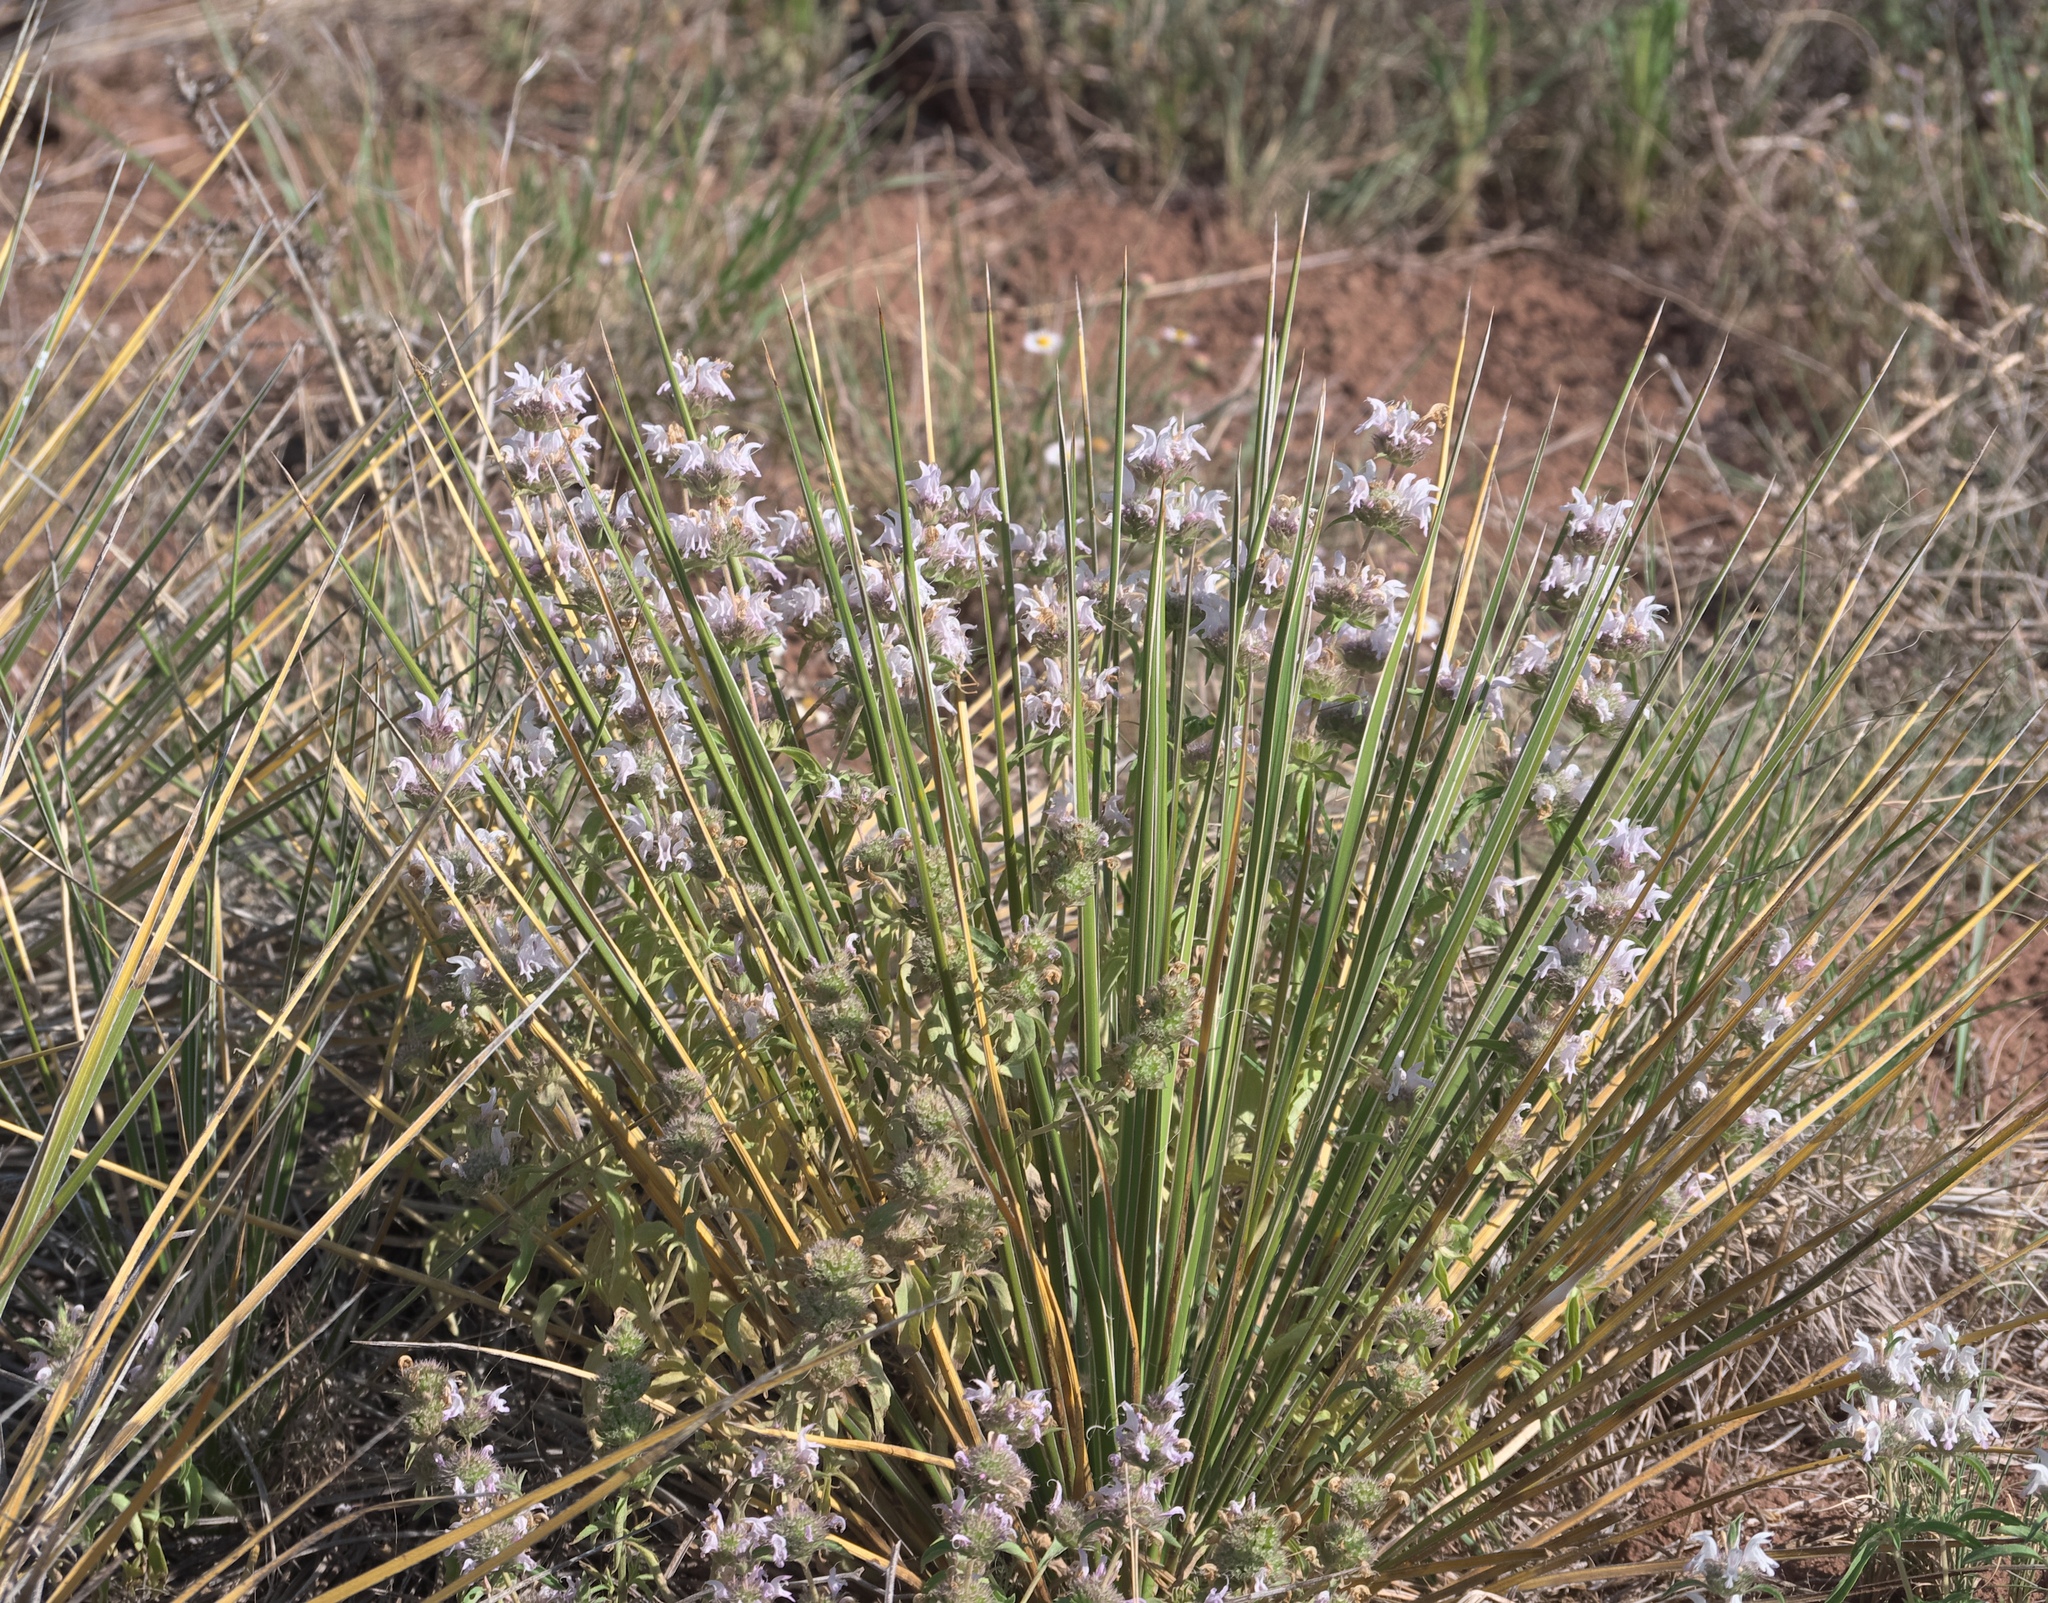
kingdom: Plantae
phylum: Tracheophyta
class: Magnoliopsida
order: Lamiales
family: Lamiaceae
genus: Monarda
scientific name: Monarda pectinata
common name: Plains beebalm
